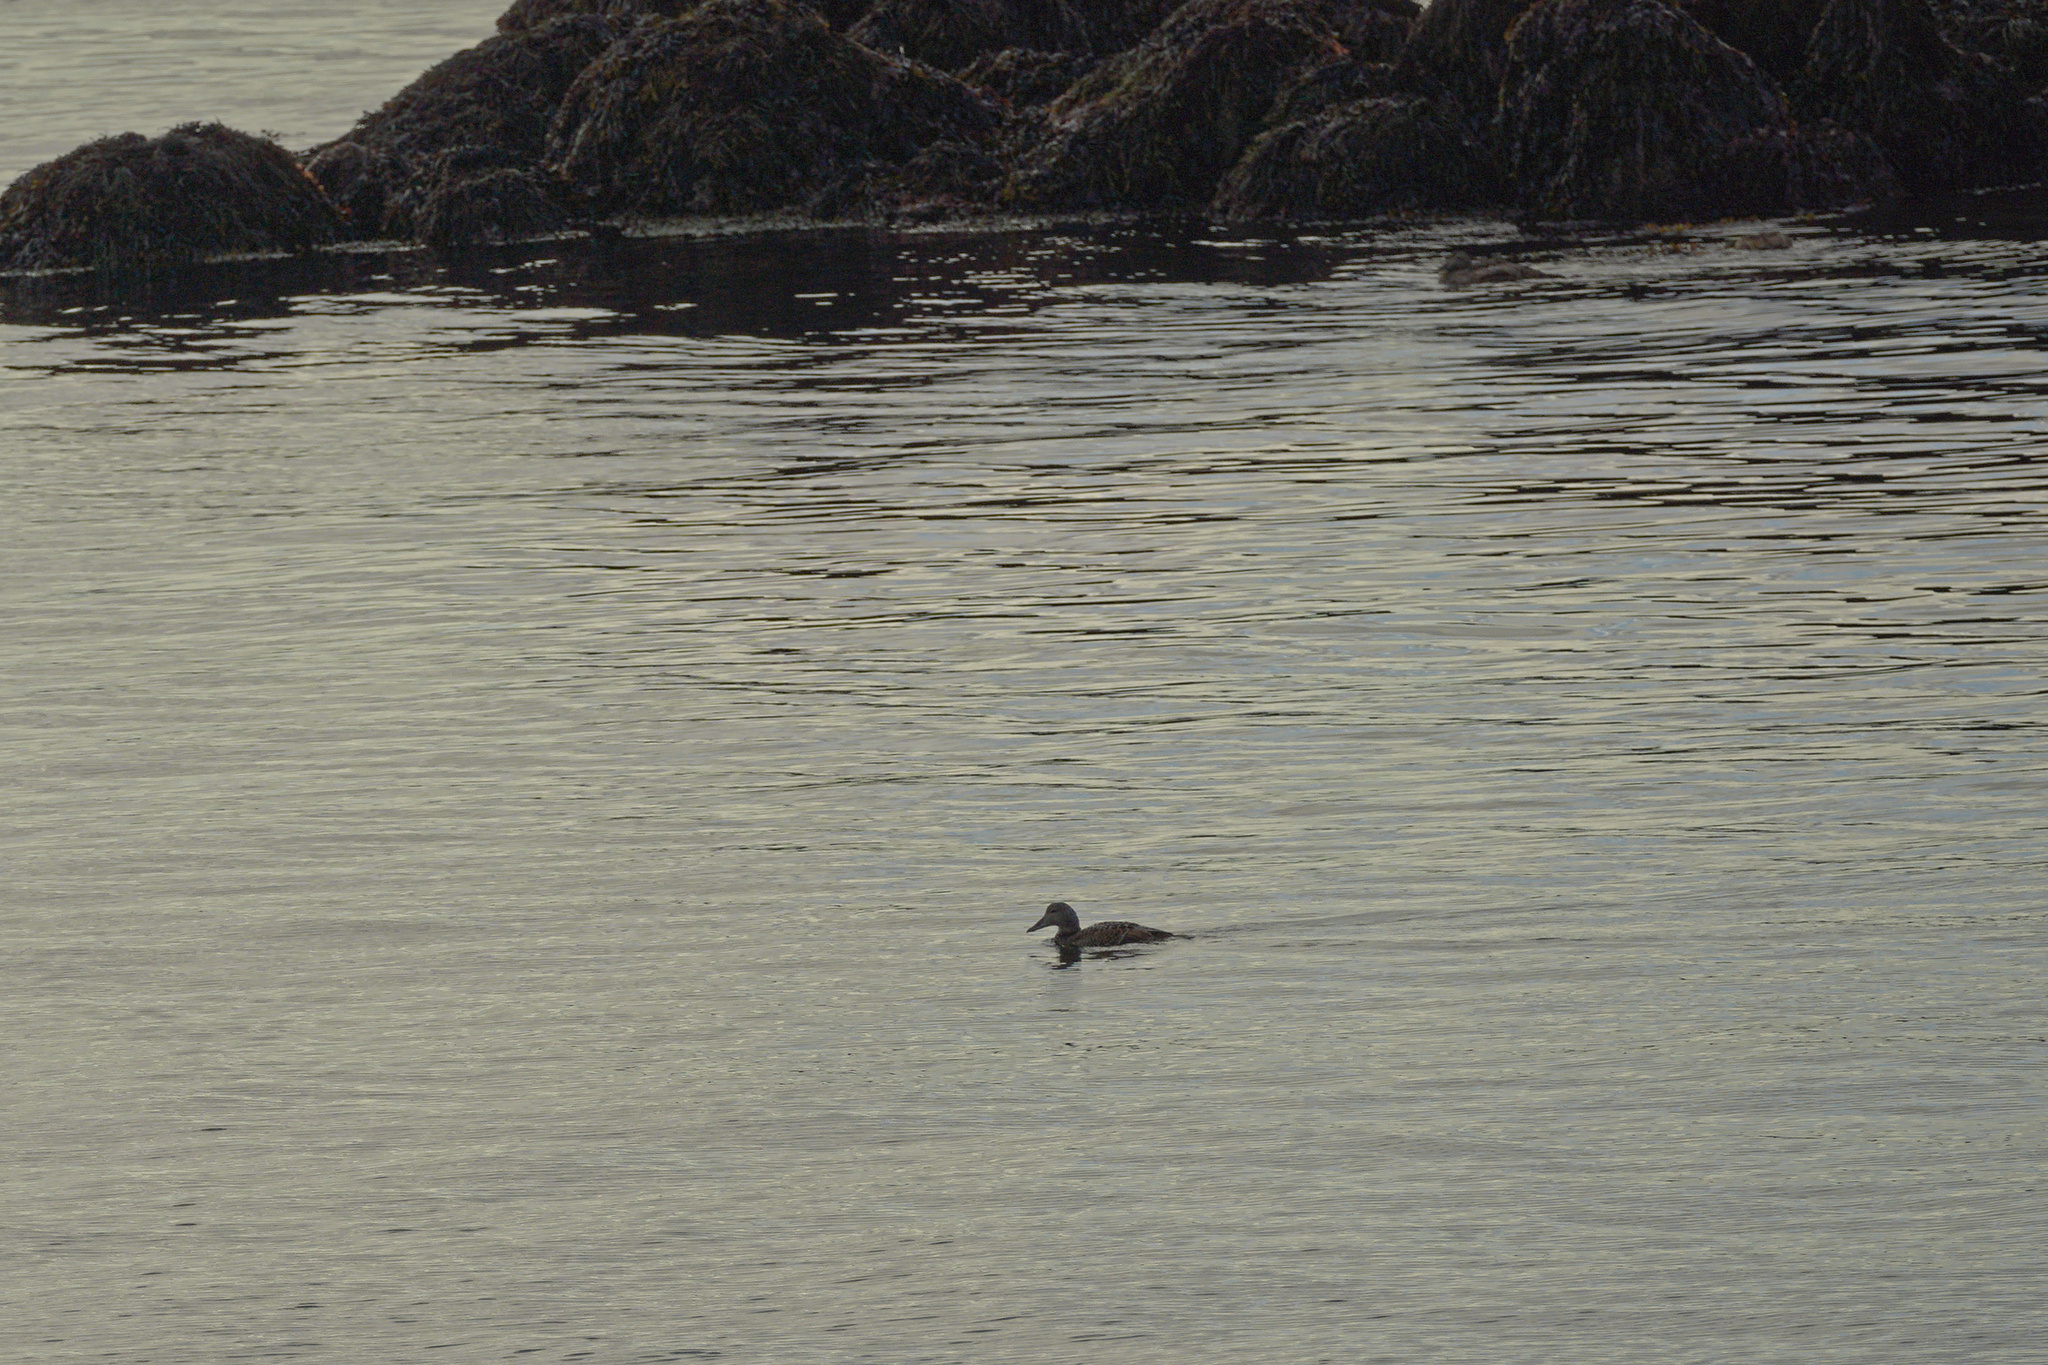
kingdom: Animalia
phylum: Chordata
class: Aves
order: Anseriformes
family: Anatidae
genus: Somateria
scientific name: Somateria mollissima
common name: Common eider
